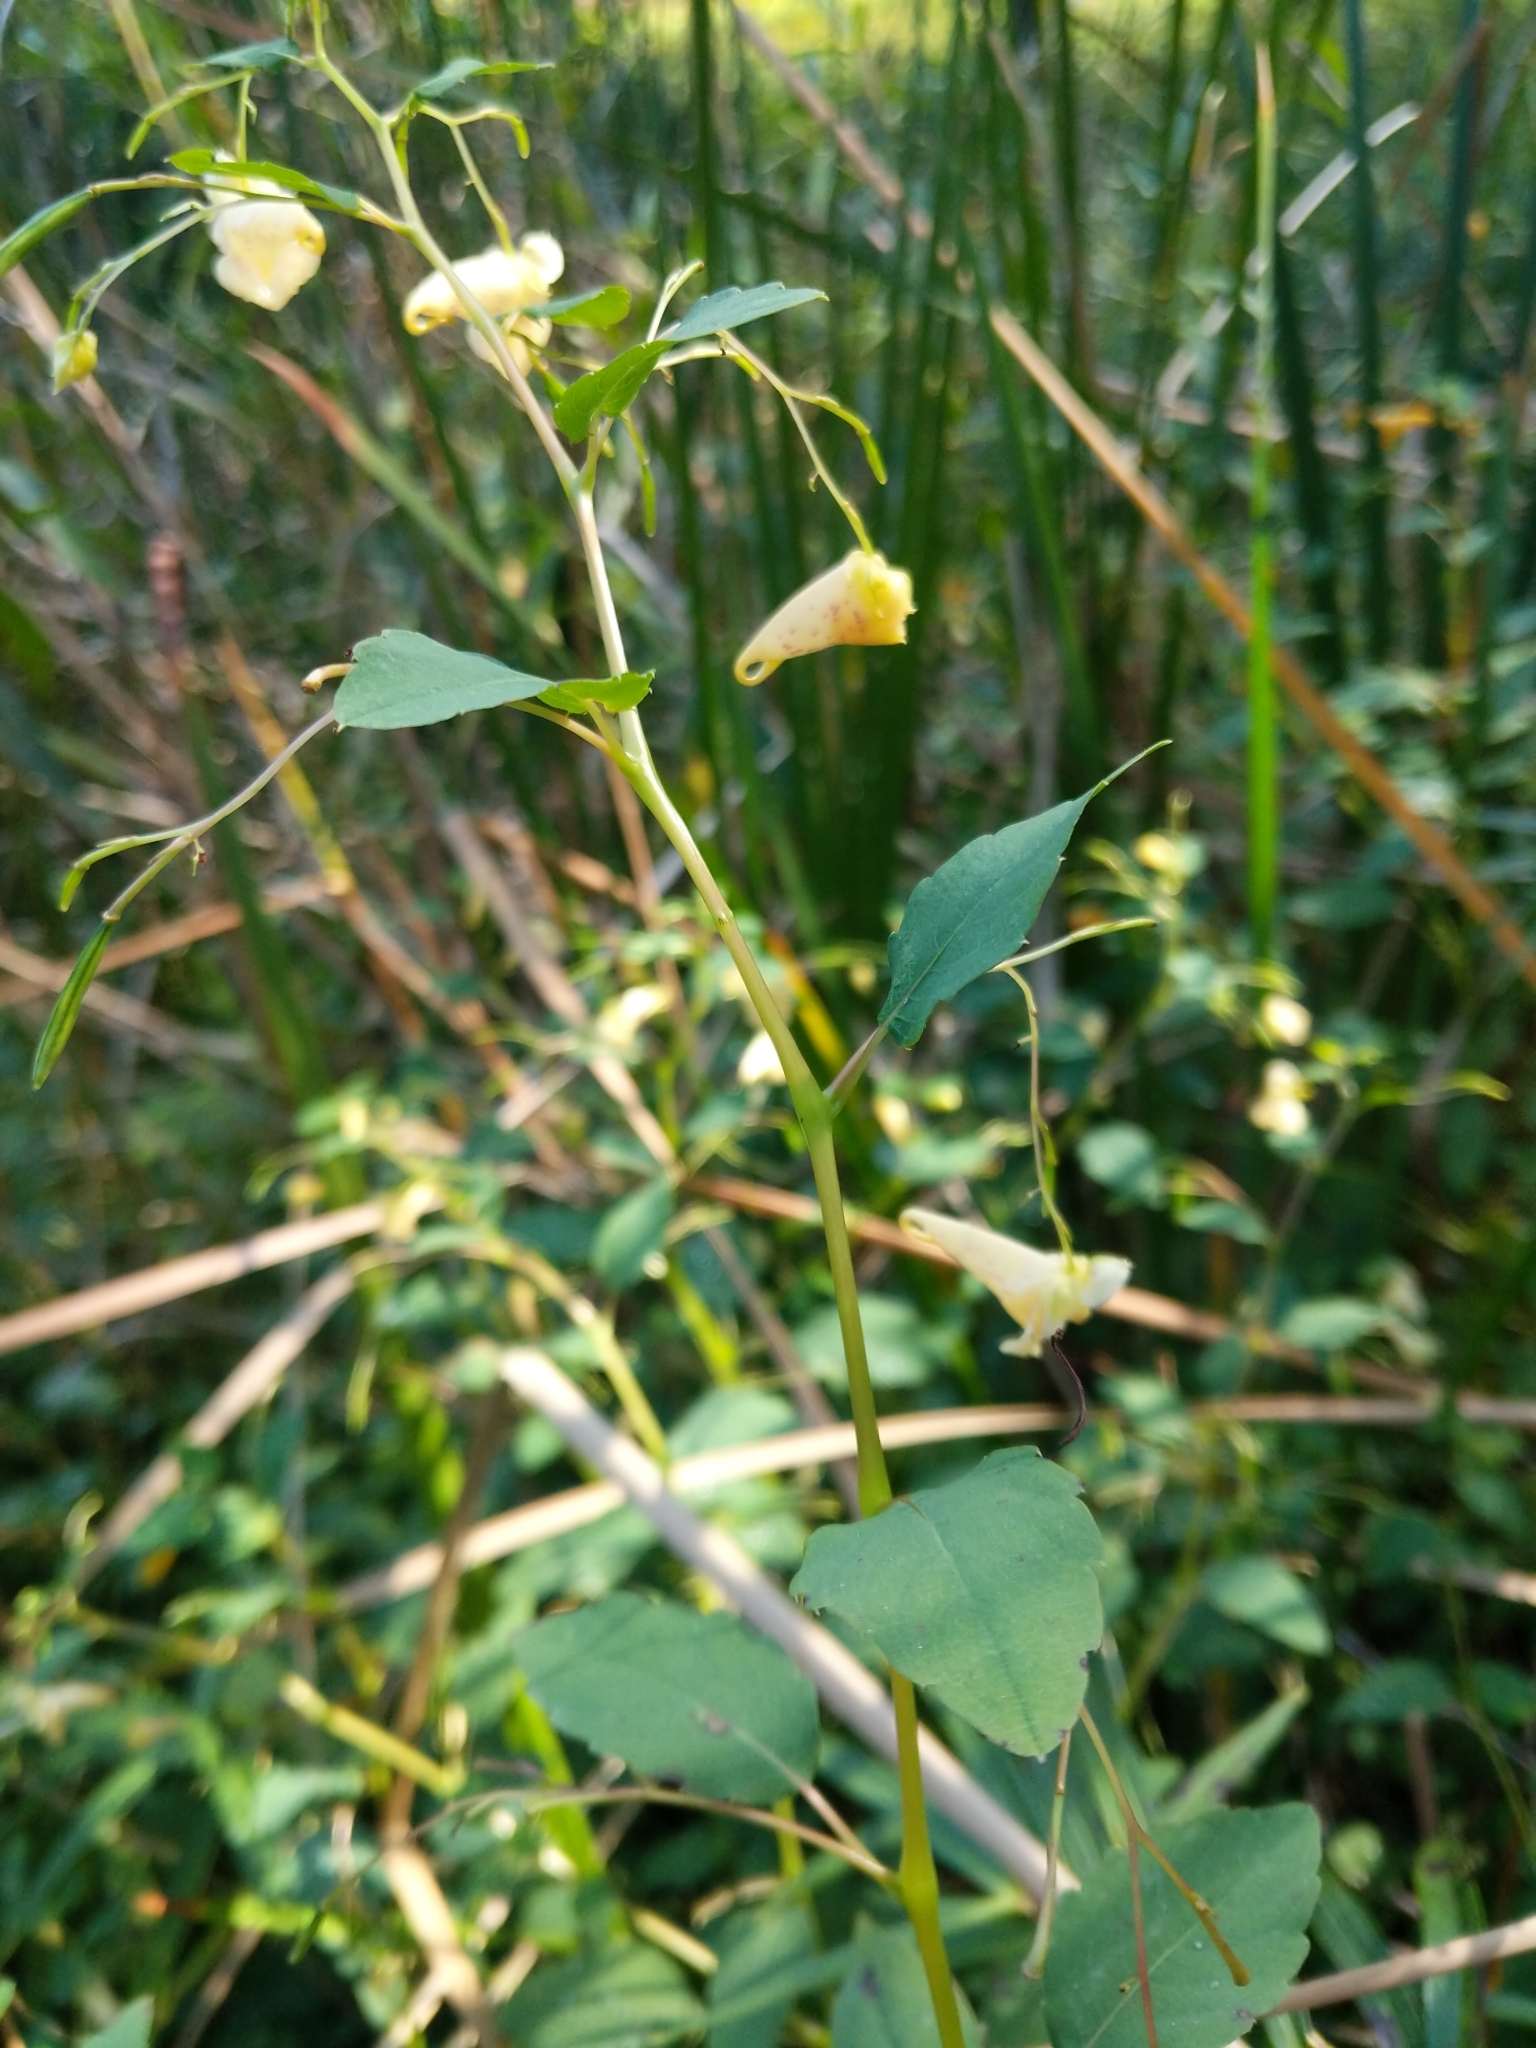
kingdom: Plantae
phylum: Tracheophyta
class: Magnoliopsida
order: Ericales
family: Balsaminaceae
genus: Impatiens
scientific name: Impatiens capensis
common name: Orange balsam
